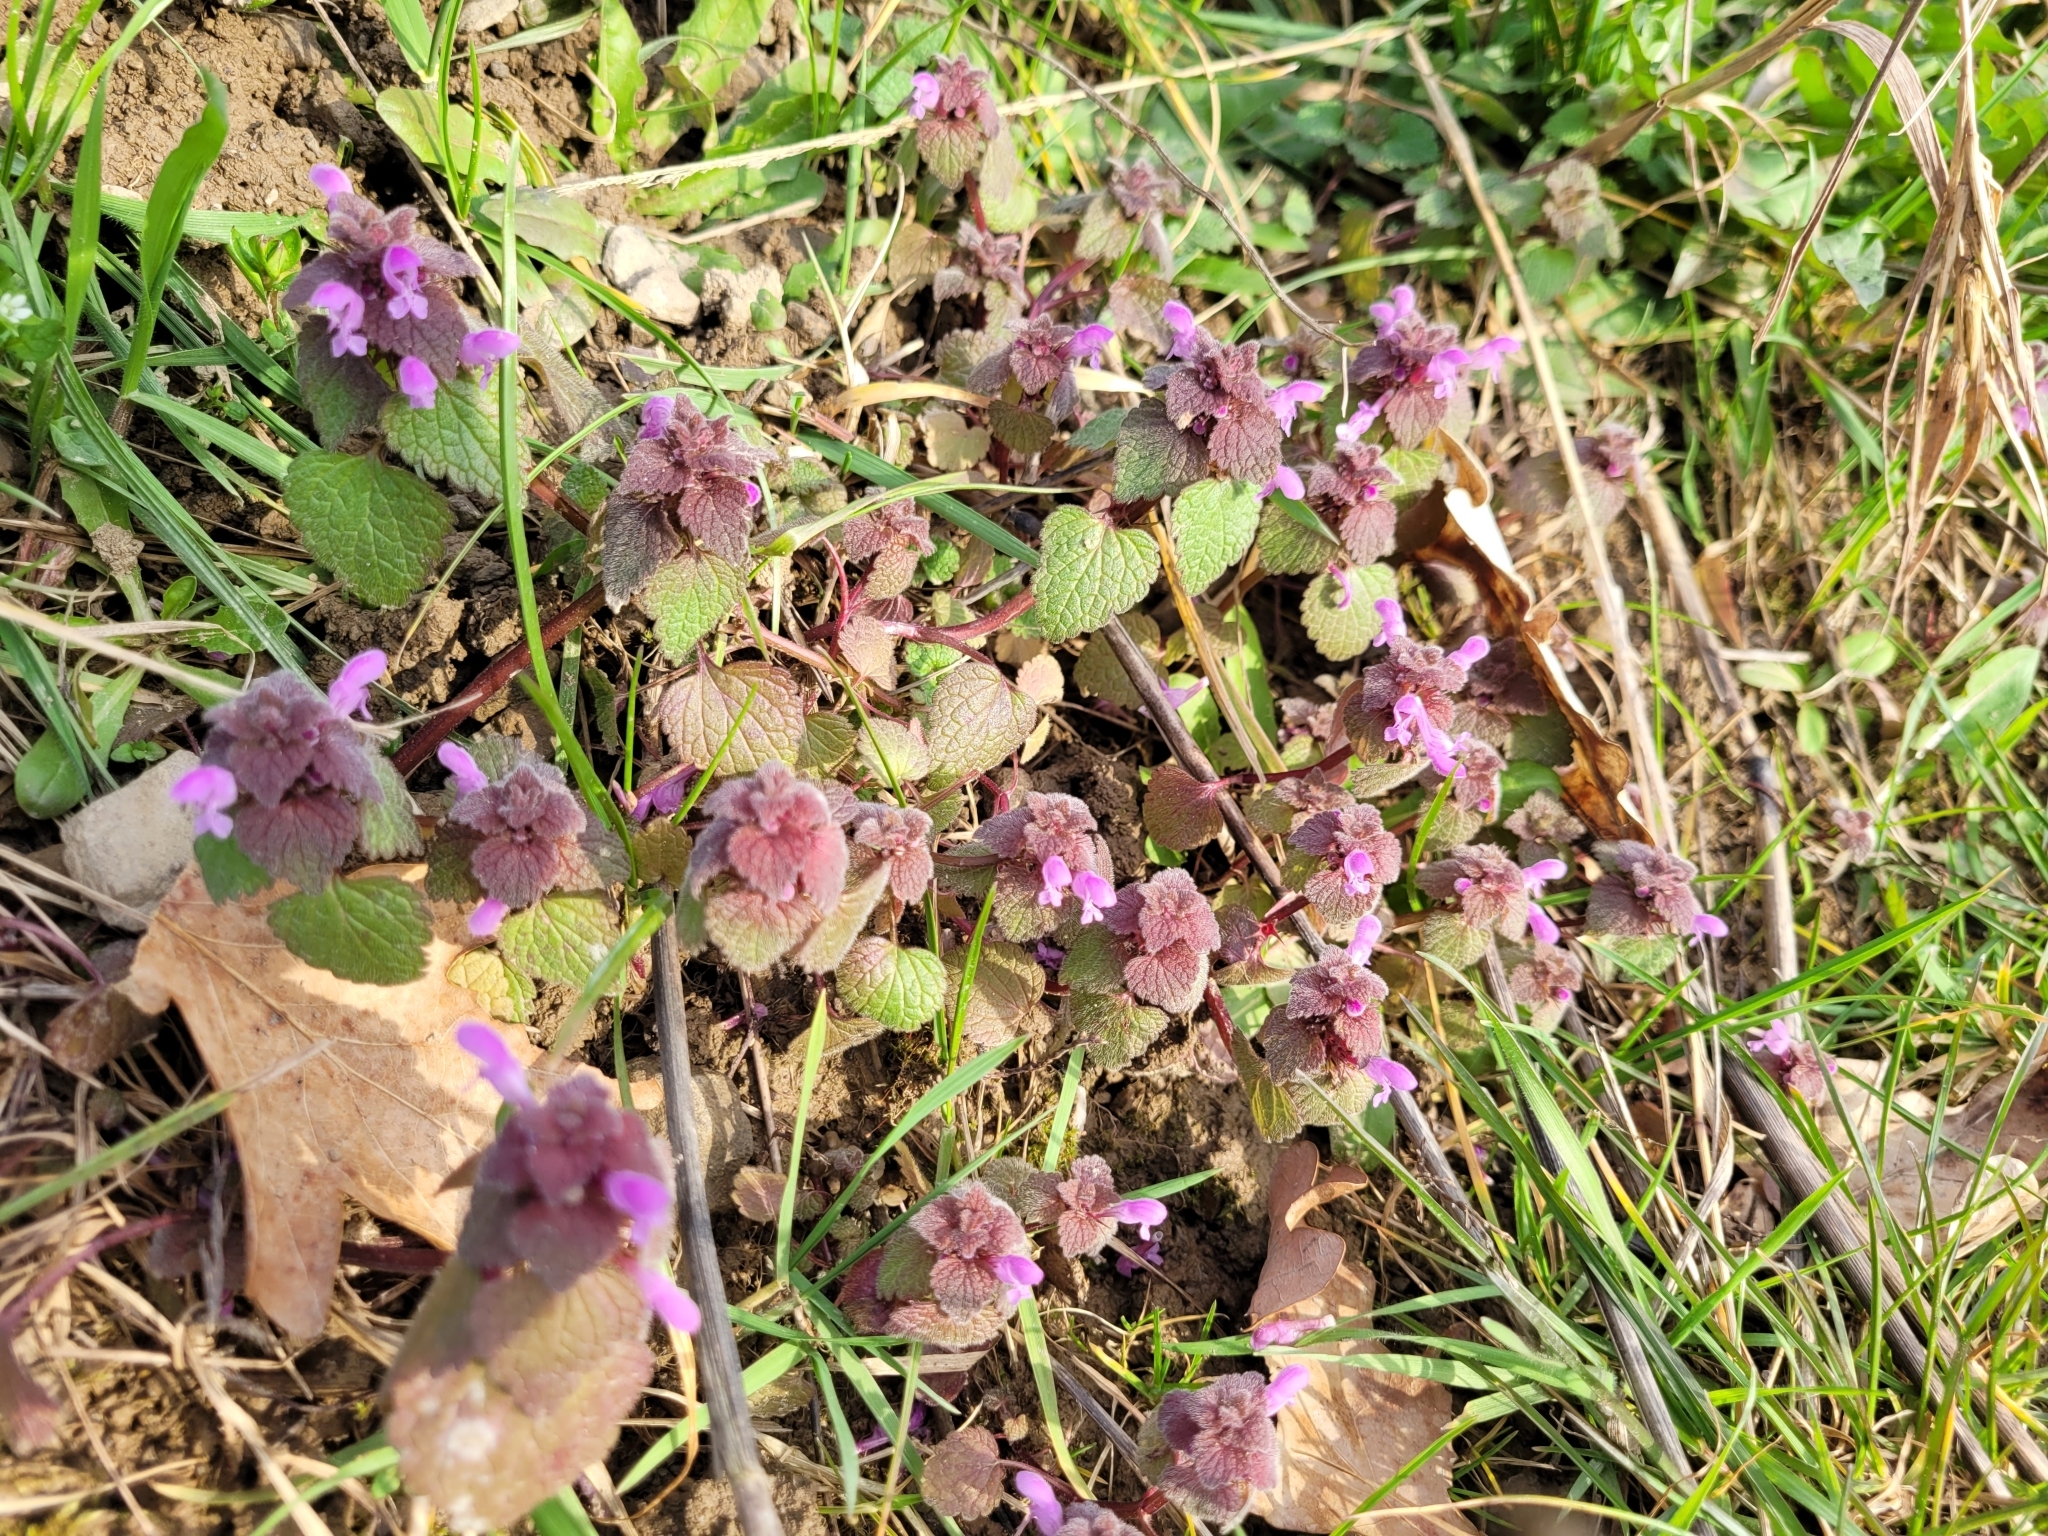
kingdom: Plantae
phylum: Tracheophyta
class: Magnoliopsida
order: Lamiales
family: Lamiaceae
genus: Lamium
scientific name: Lamium purpureum
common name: Red dead-nettle
